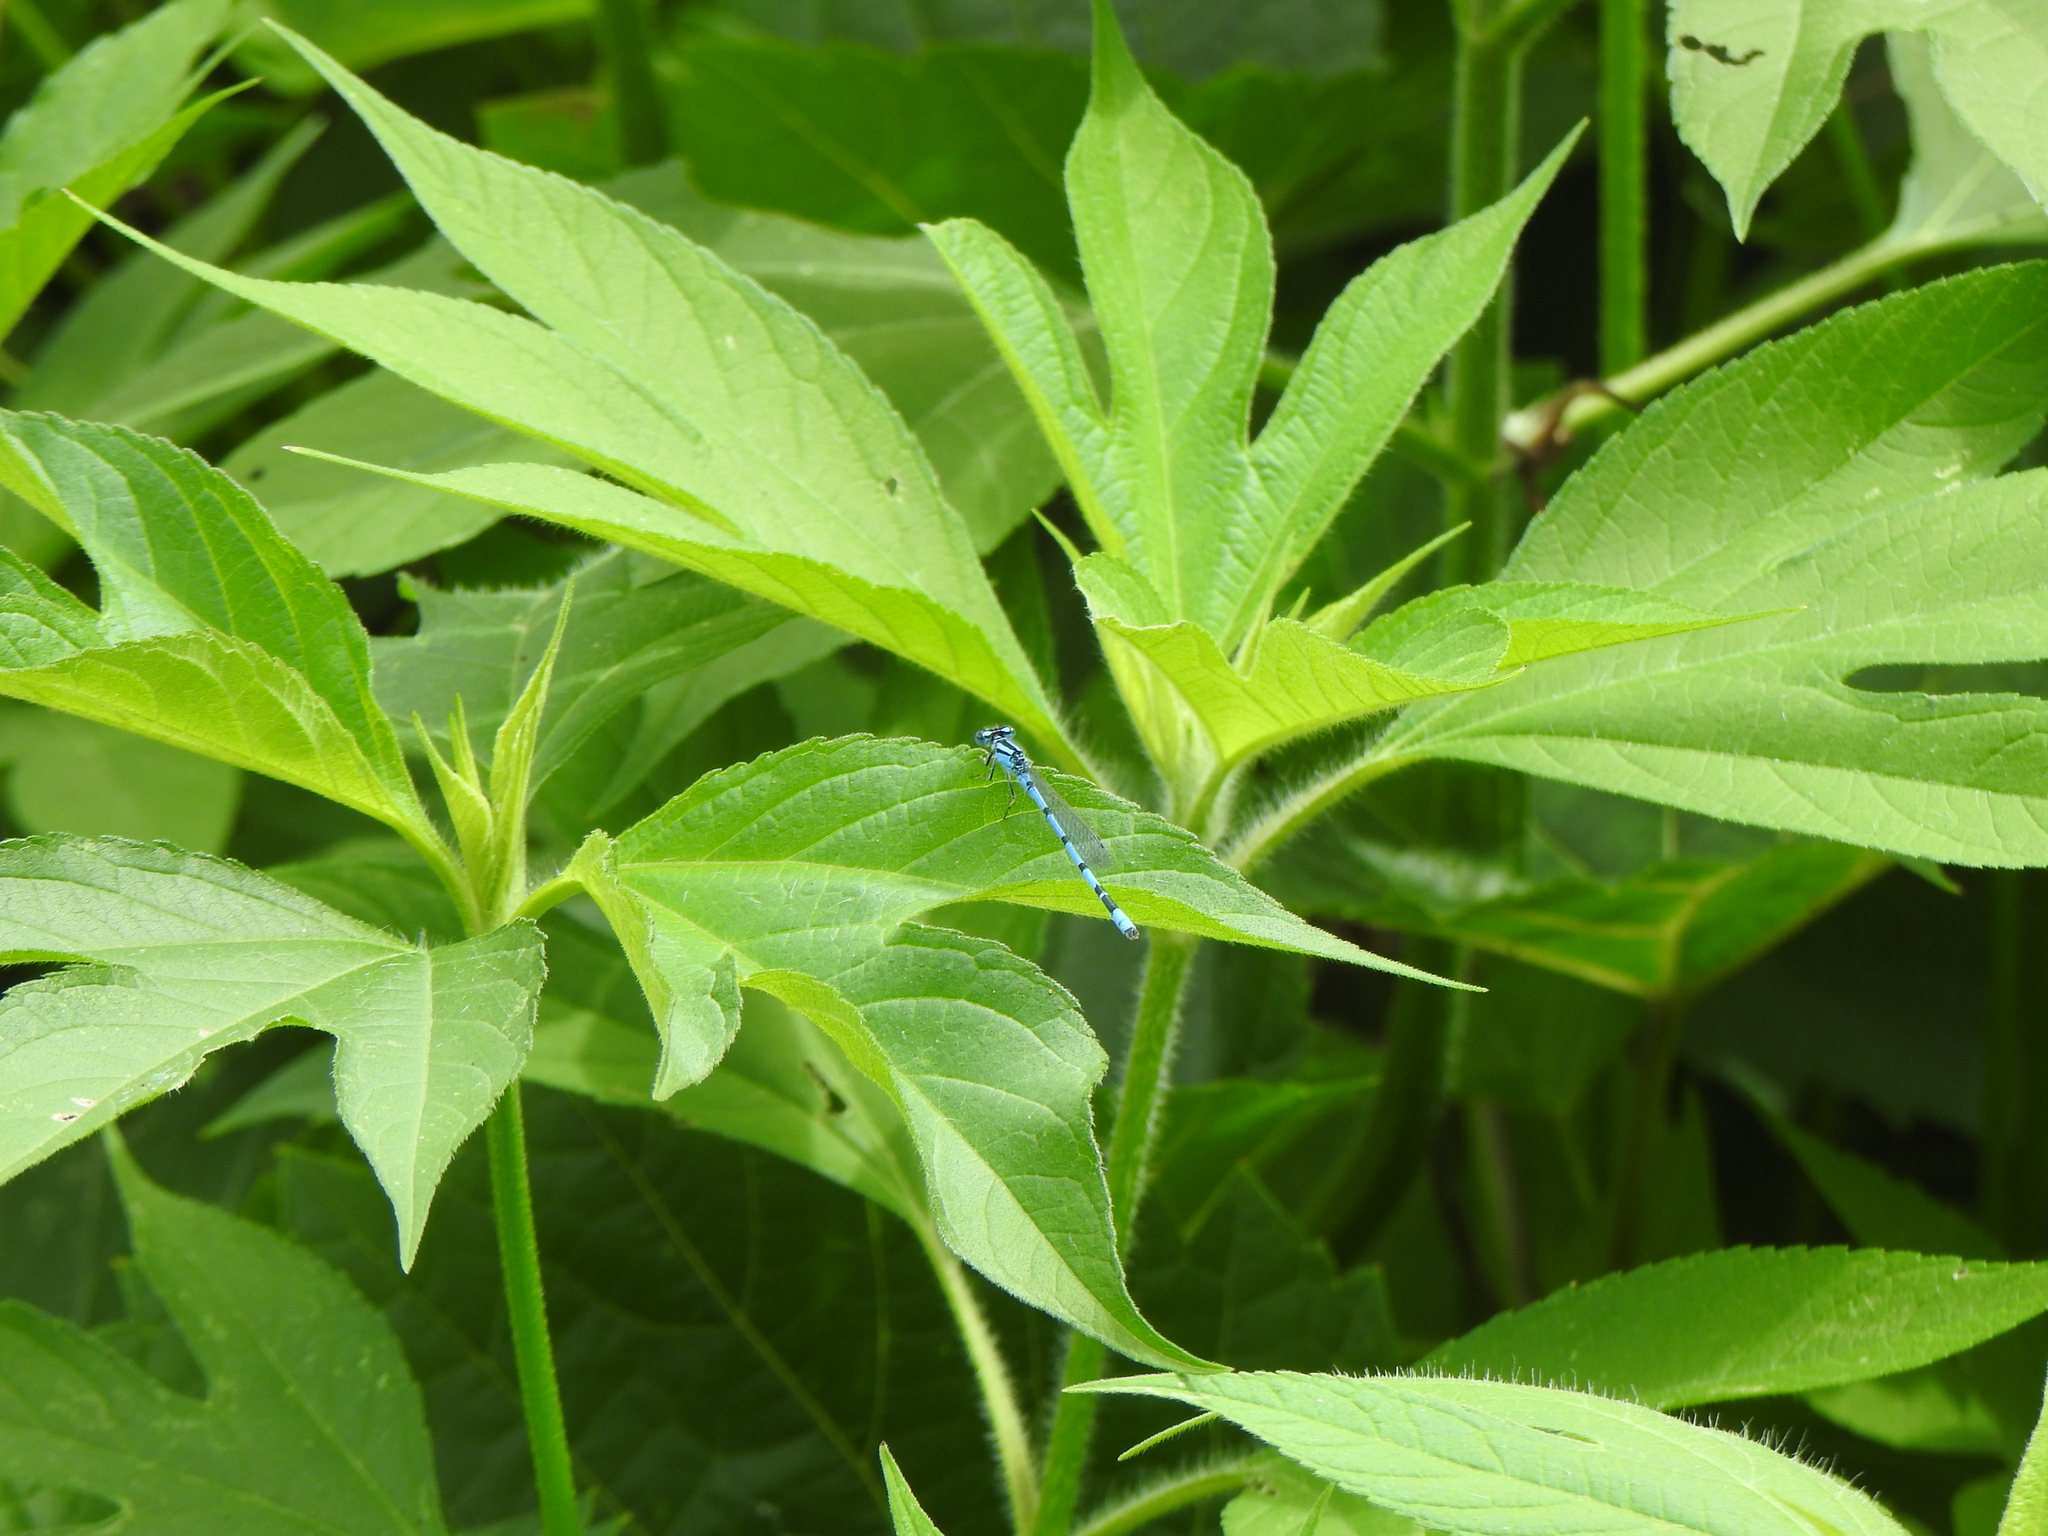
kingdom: Animalia
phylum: Arthropoda
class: Insecta
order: Odonata
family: Coenagrionidae
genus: Enallagma
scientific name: Enallagma
